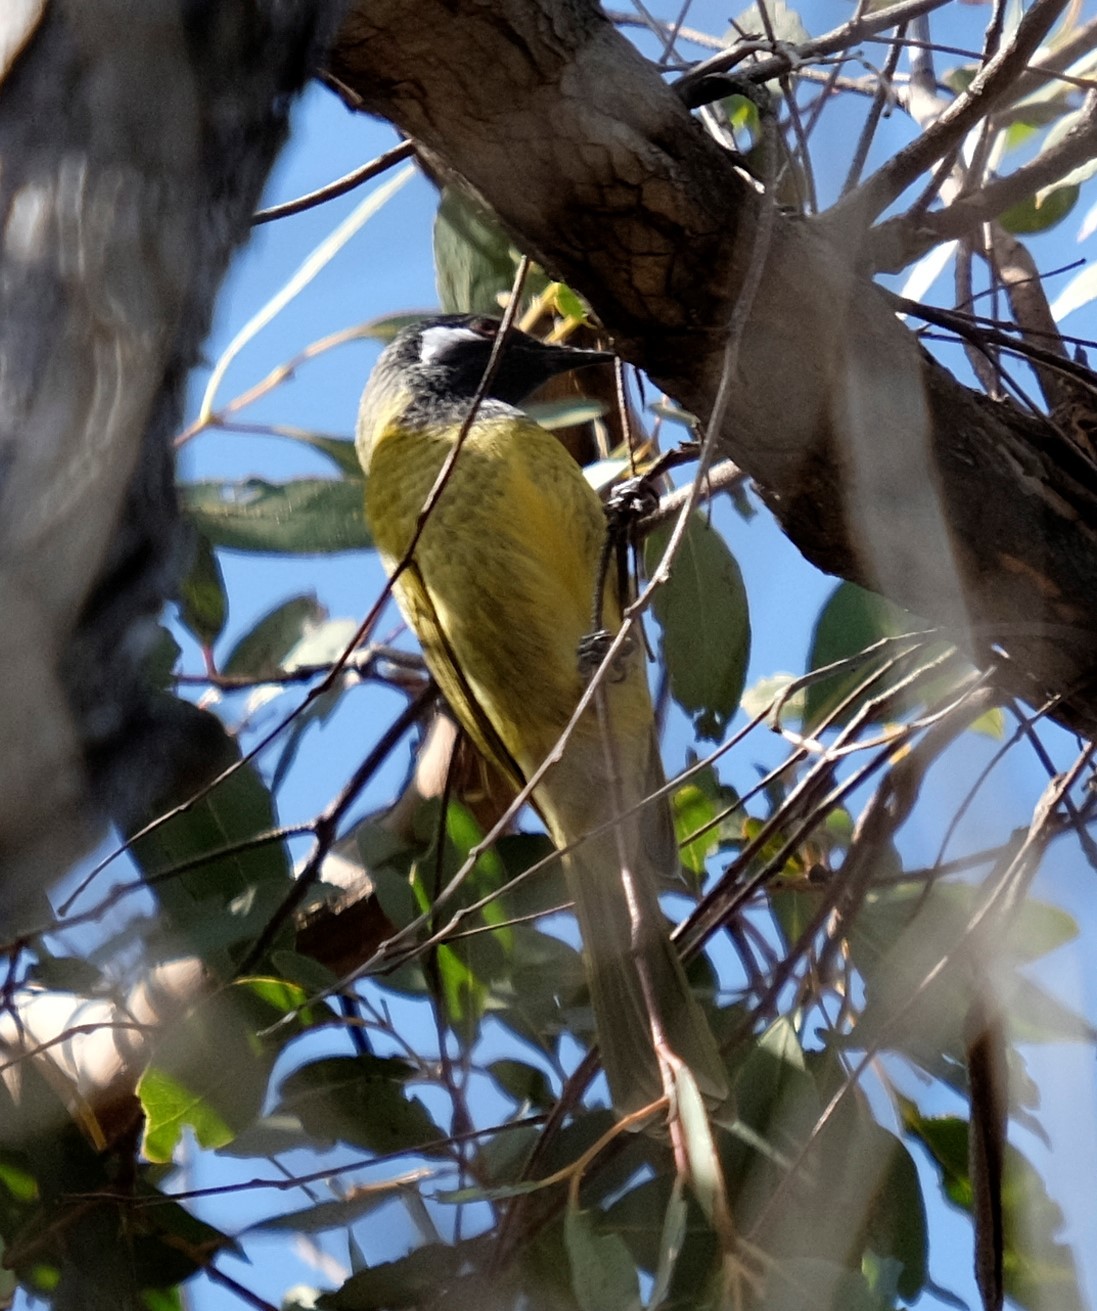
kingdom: Animalia
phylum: Chordata
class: Aves
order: Passeriformes
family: Meliphagidae
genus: Nesoptilotis
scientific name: Nesoptilotis leucotis
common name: White-eared honeyeater
